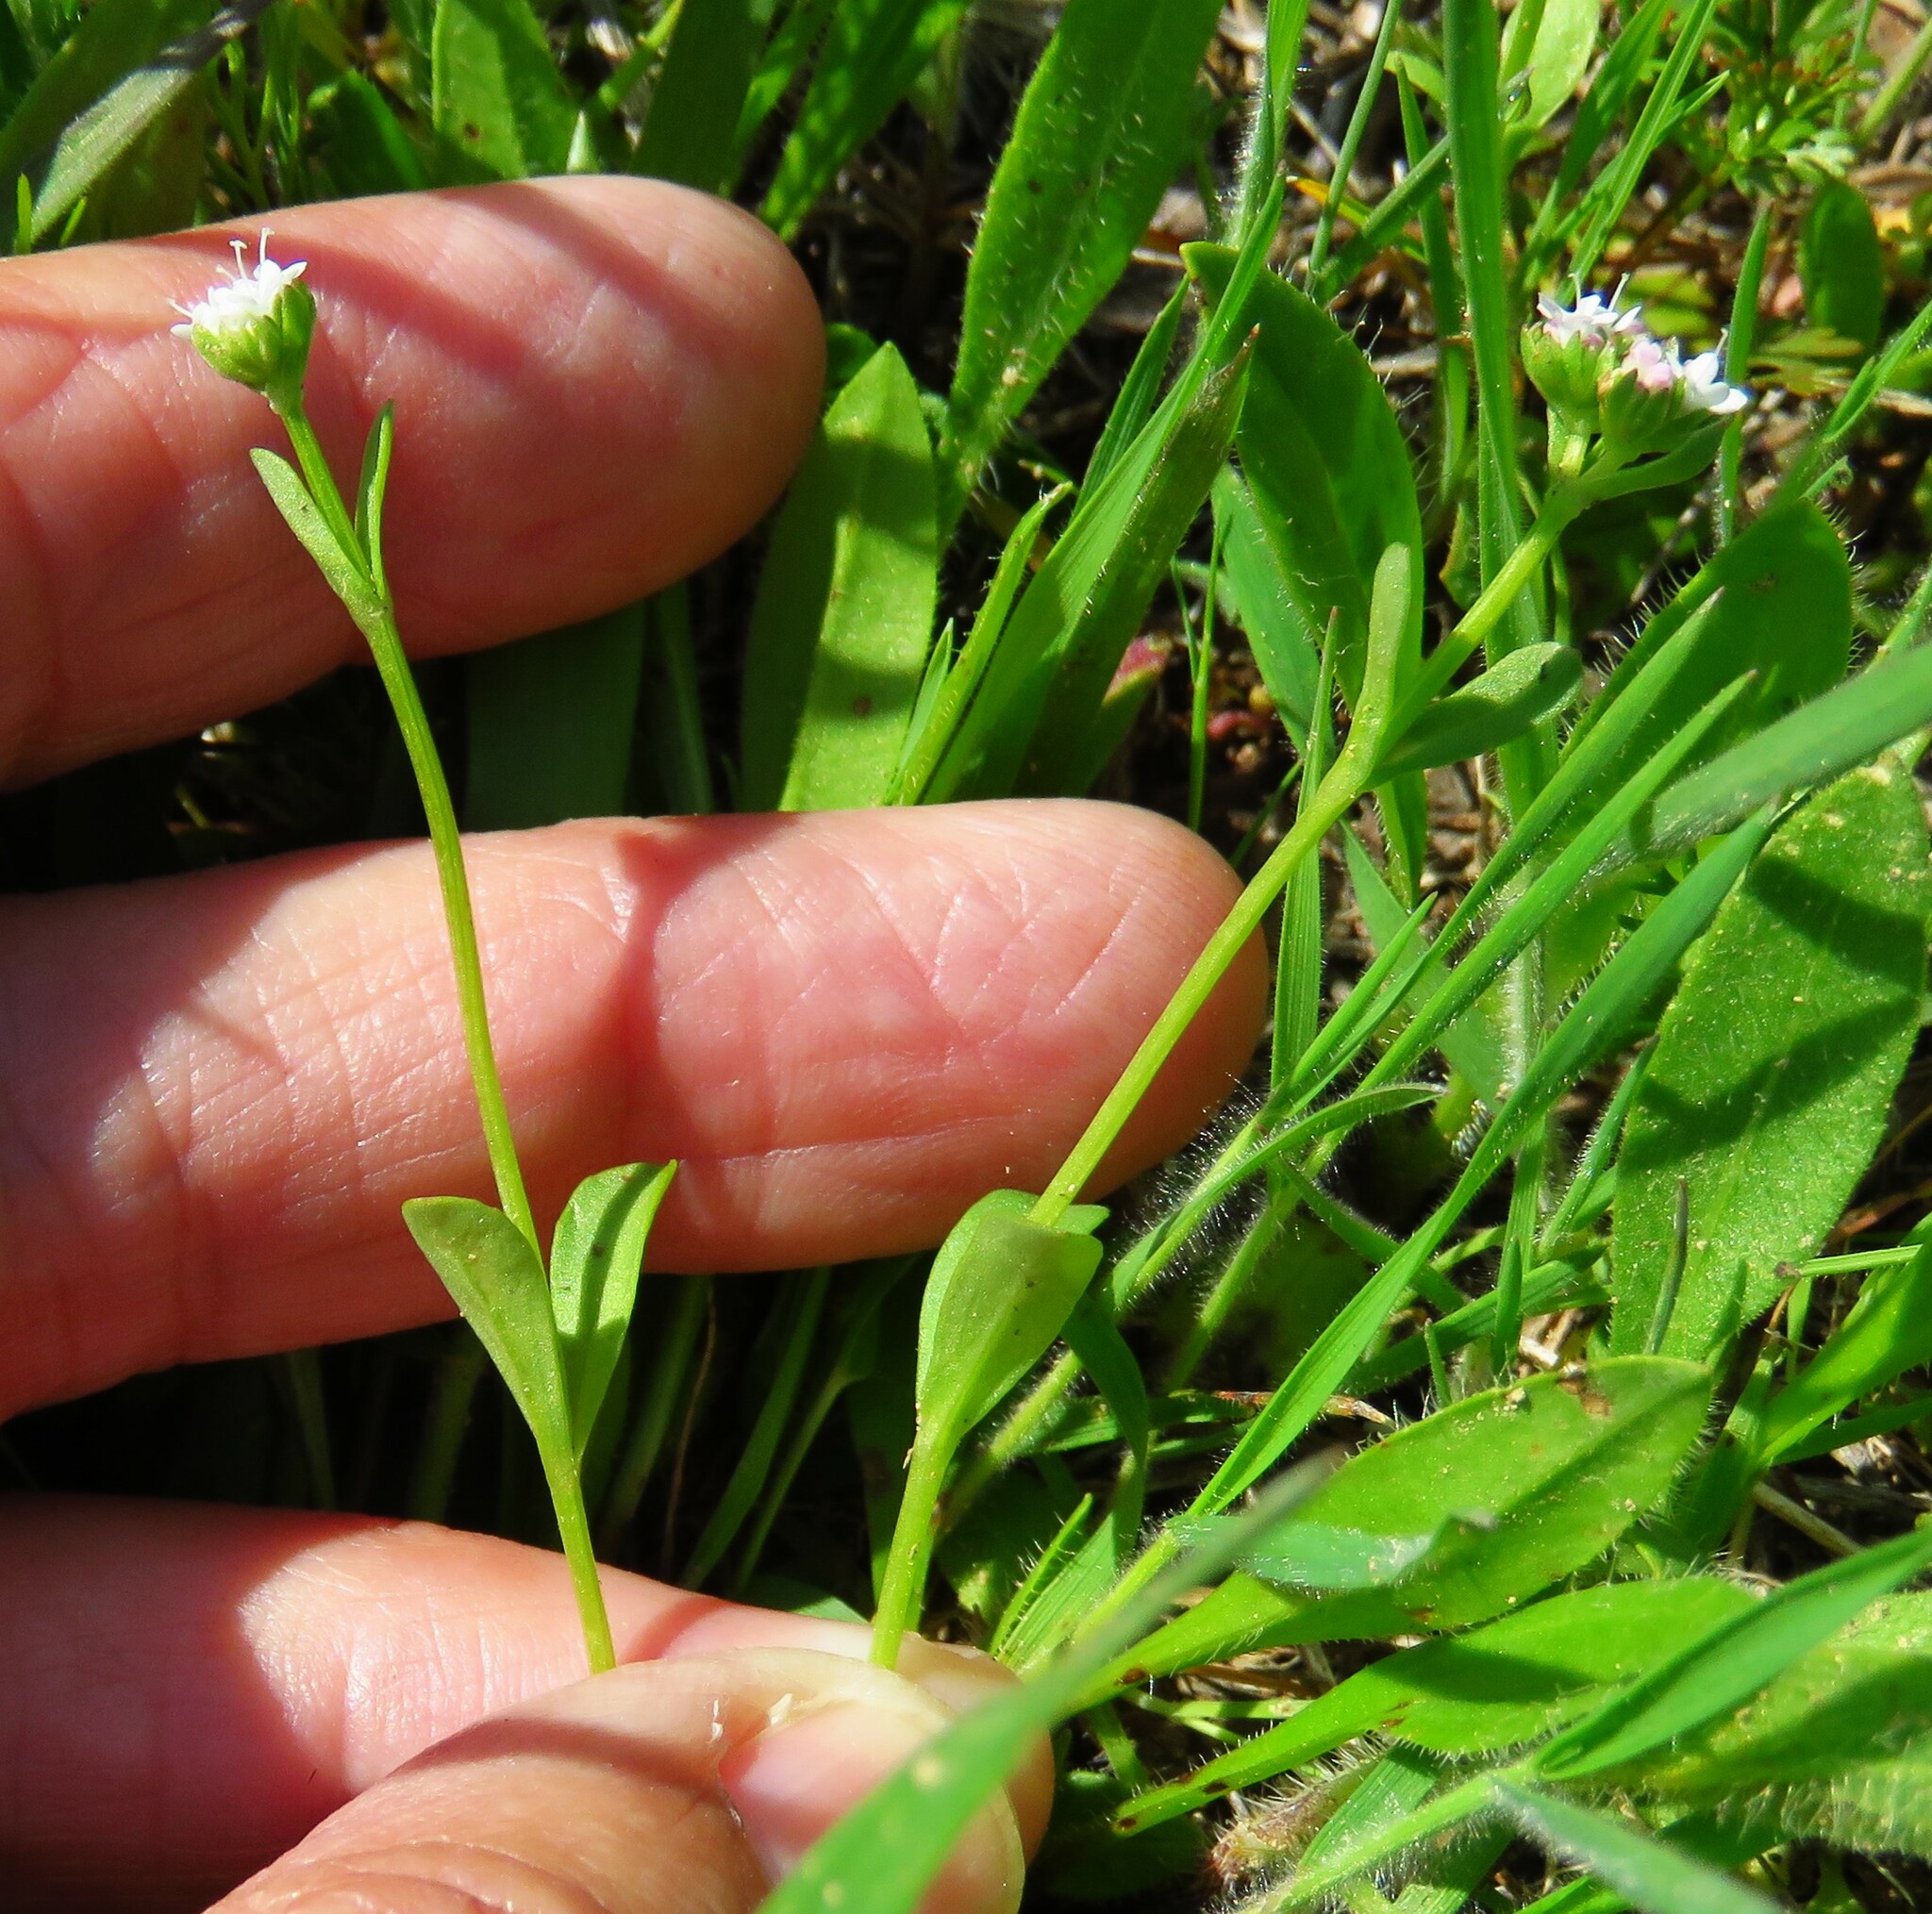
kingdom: Plantae
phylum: Tracheophyta
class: Magnoliopsida
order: Dipsacales
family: Caprifoliaceae
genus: Valerianella
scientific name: Valerianella radiata
